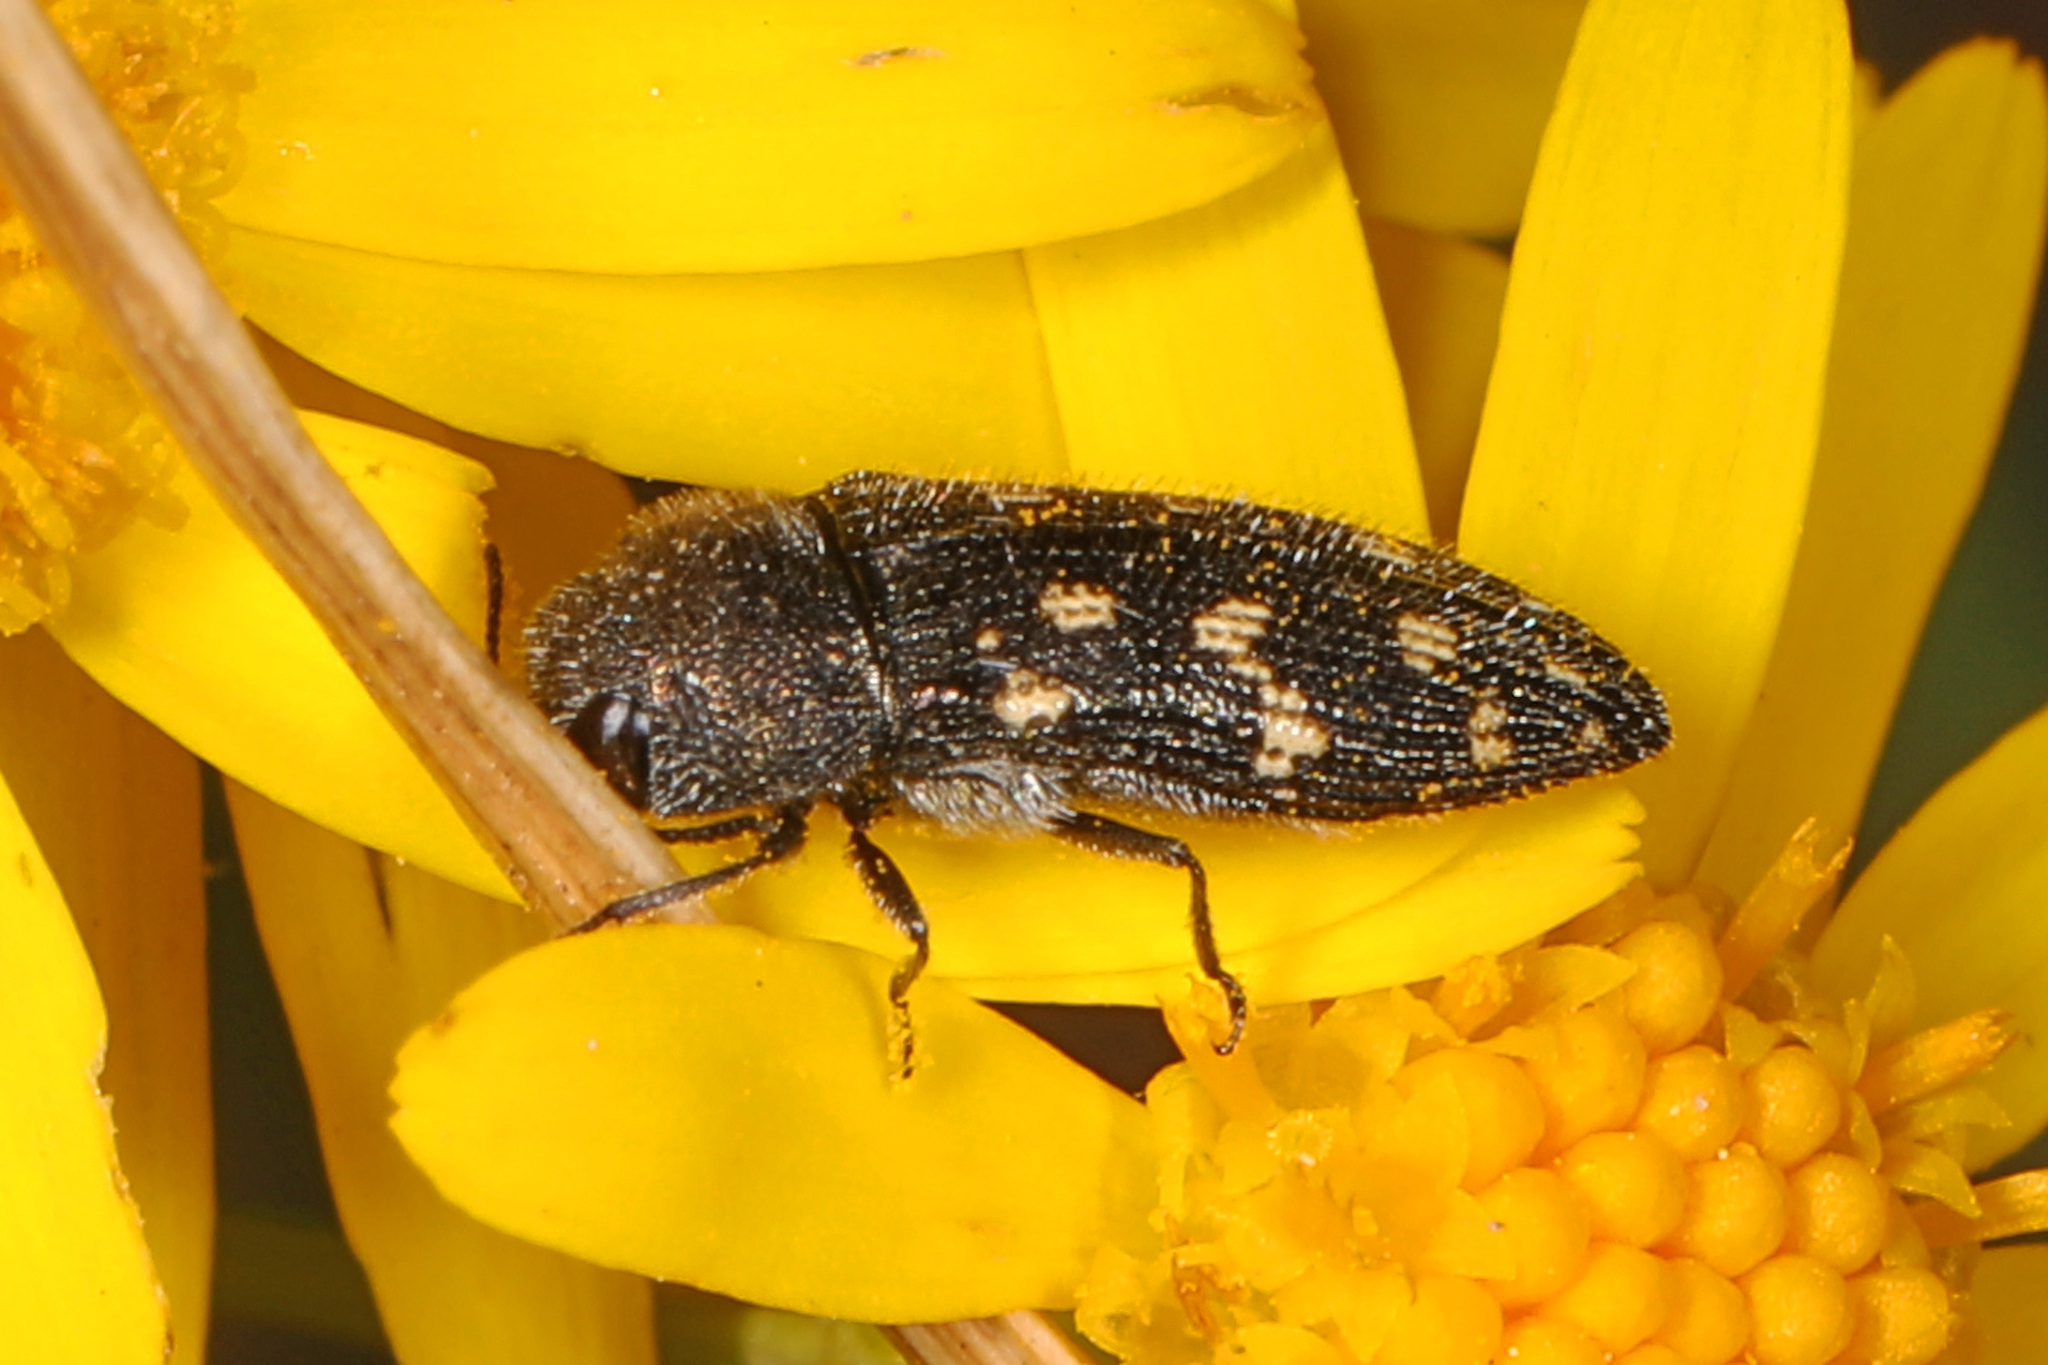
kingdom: Animalia
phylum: Arthropoda
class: Insecta
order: Coleoptera
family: Buprestidae
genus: Acmaeodera
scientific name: Acmaeodera tubulus
